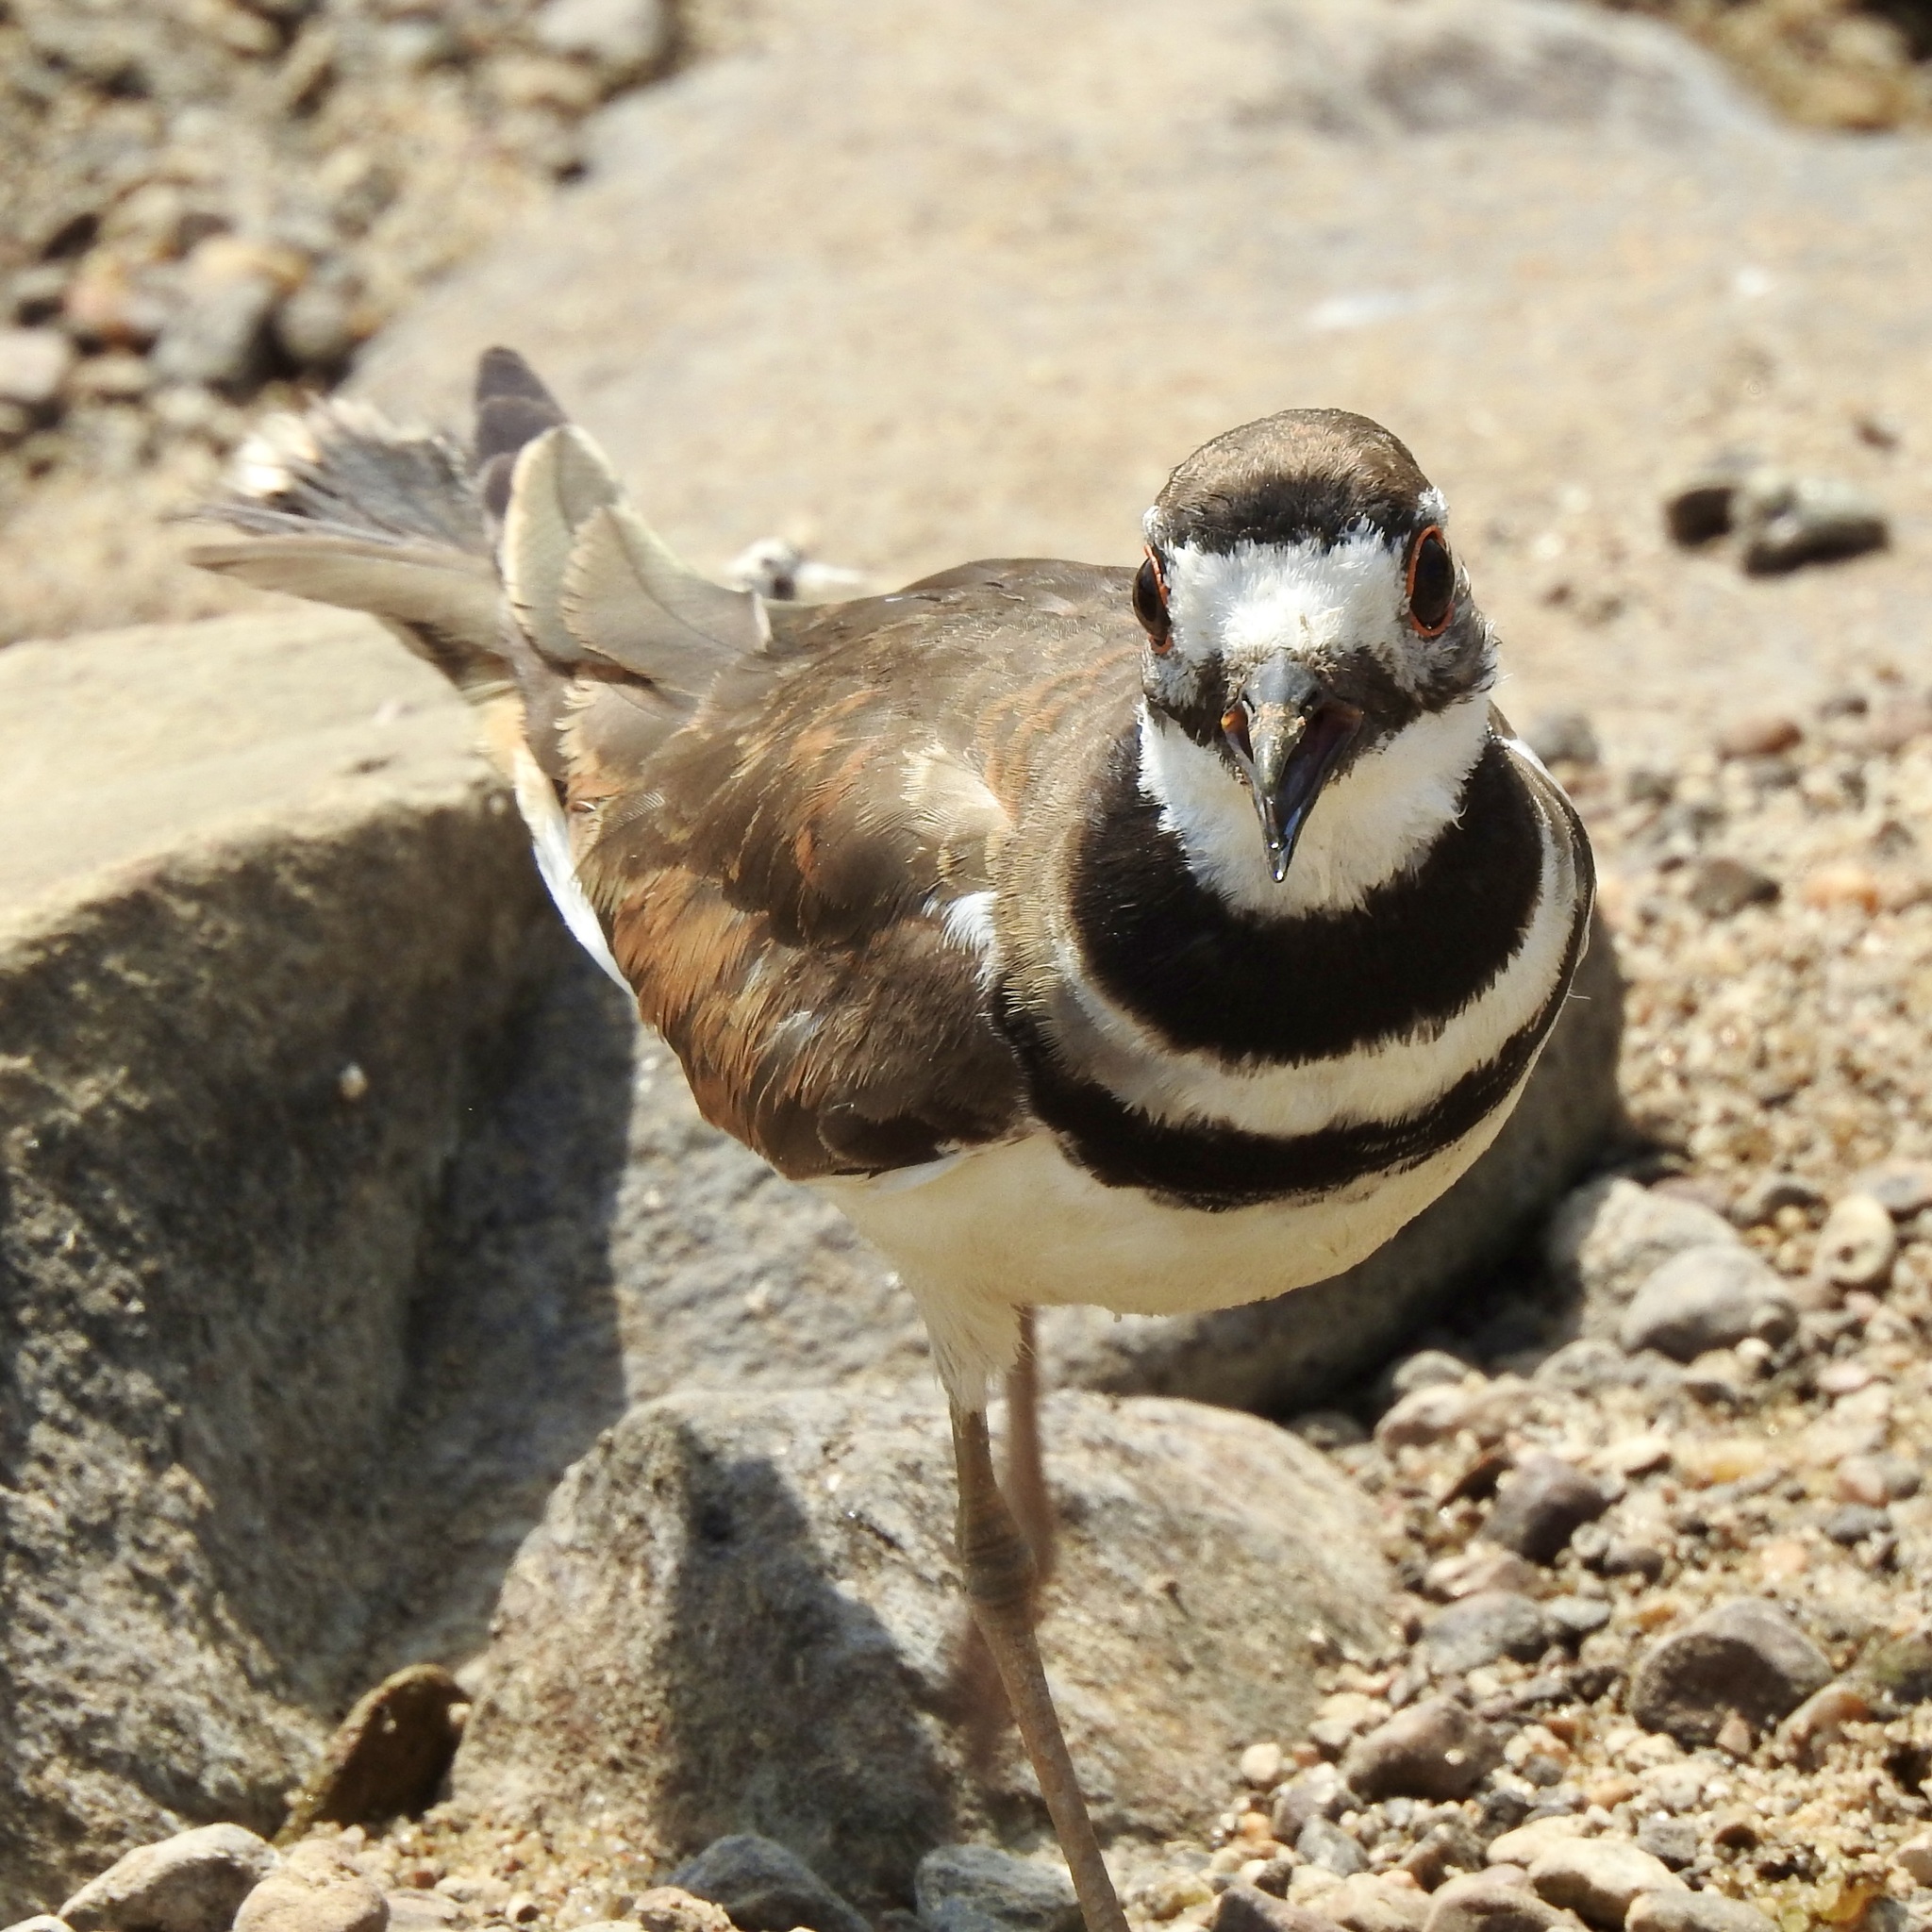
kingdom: Animalia
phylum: Chordata
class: Aves
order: Charadriiformes
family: Charadriidae
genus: Charadrius
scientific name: Charadrius vociferus
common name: Killdeer
